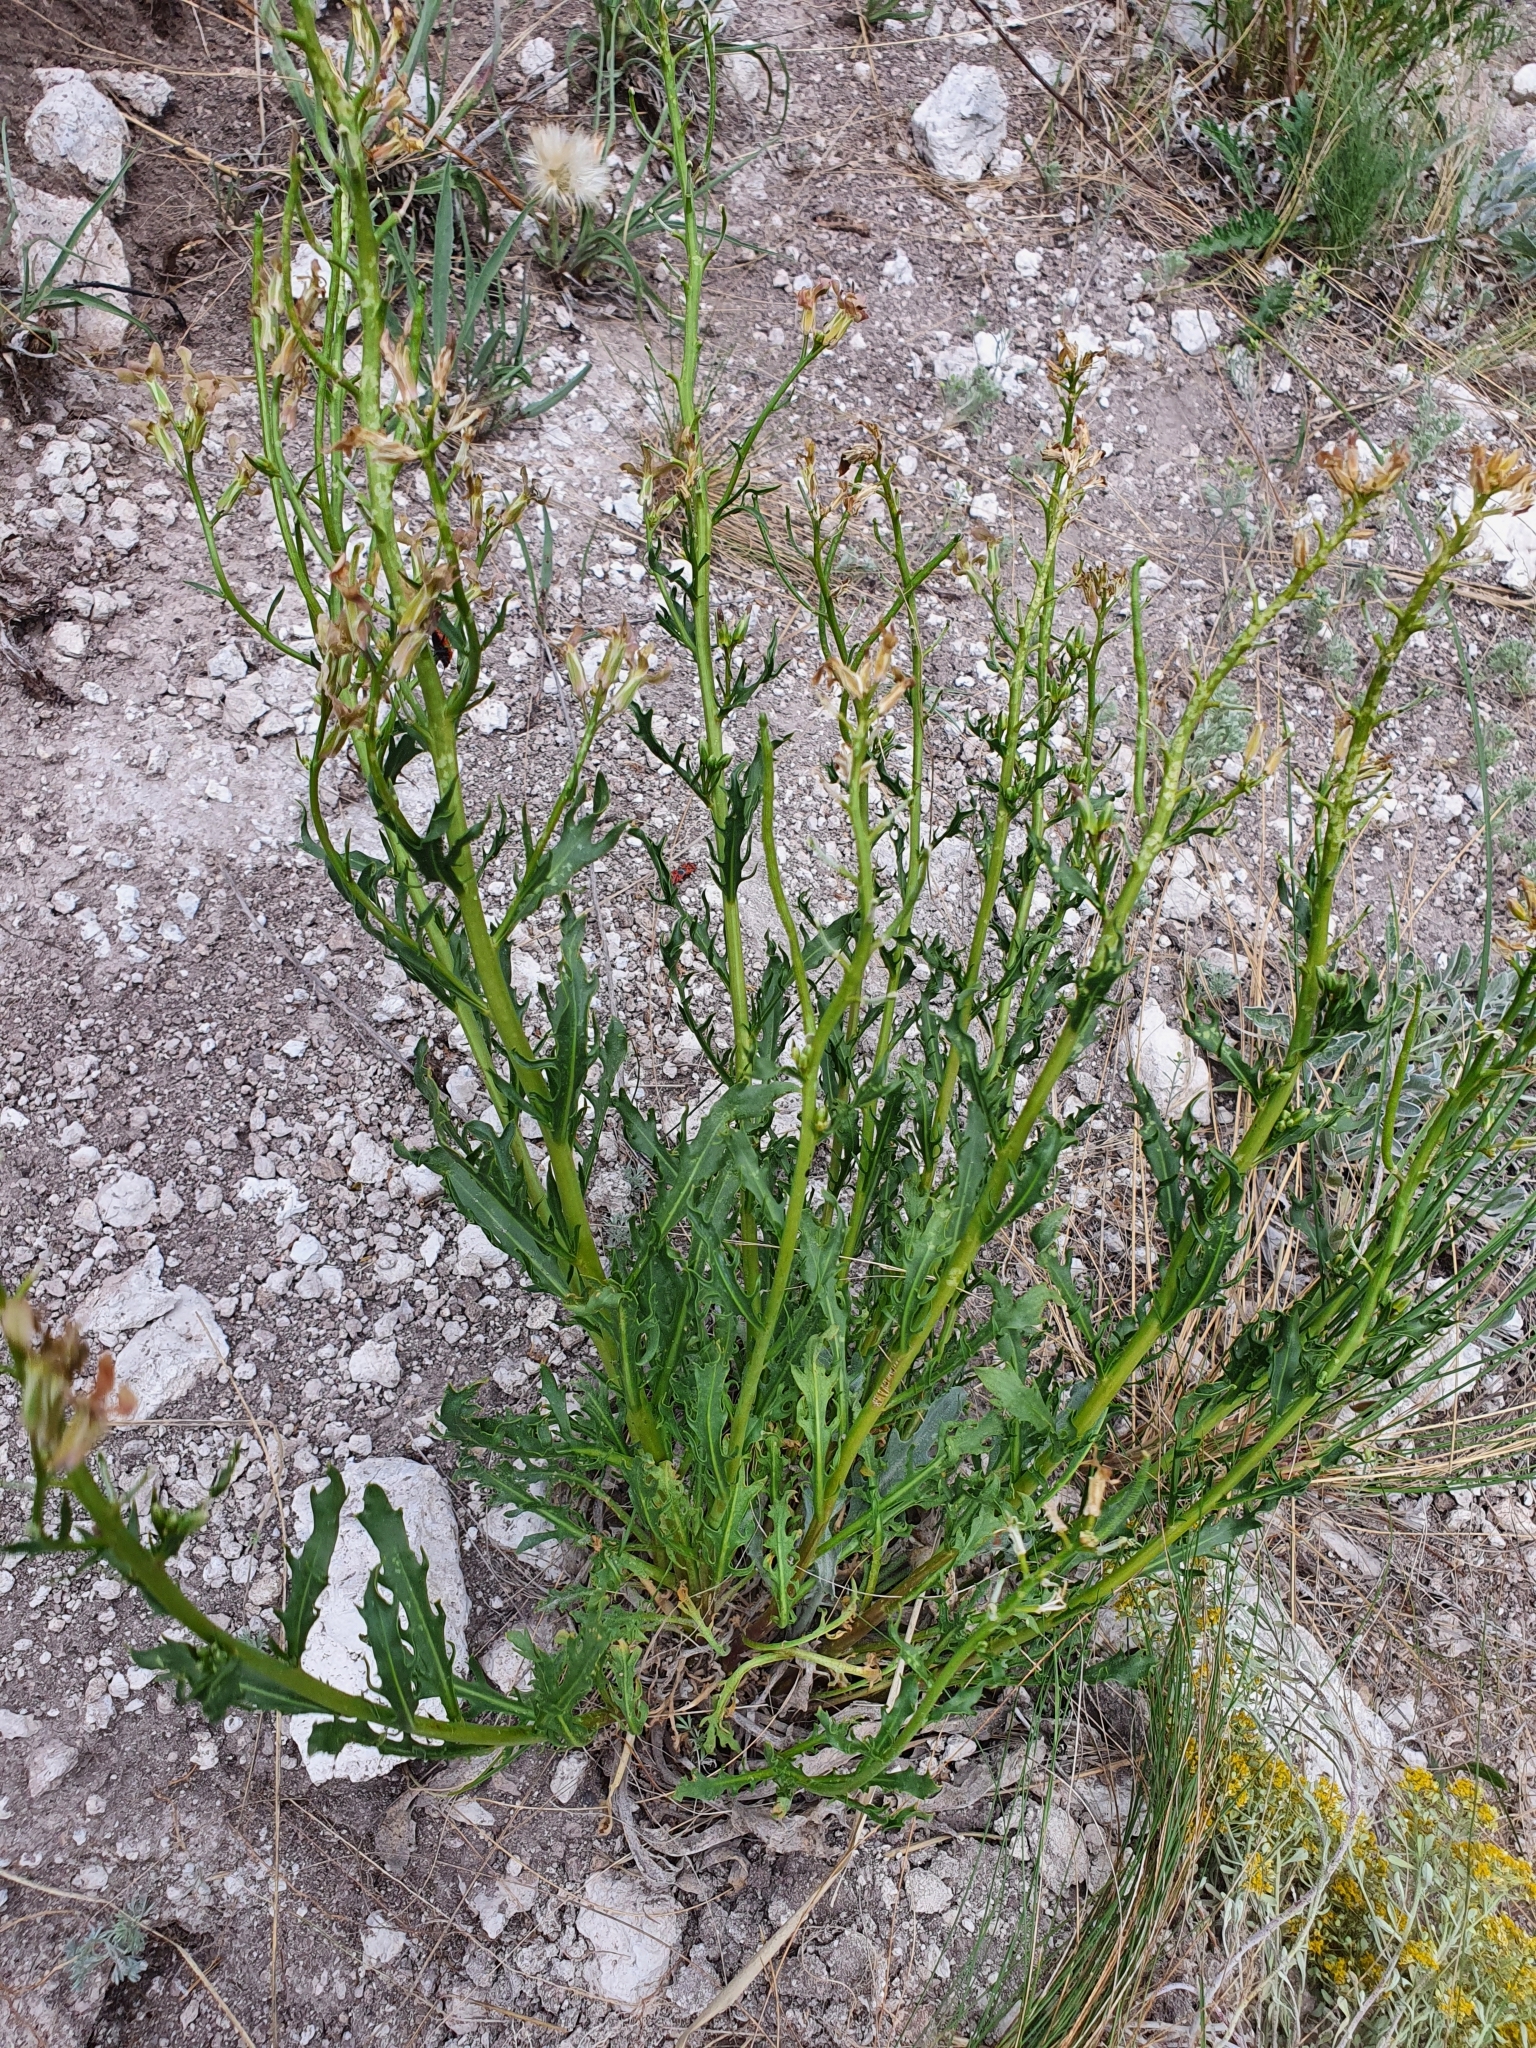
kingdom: Plantae
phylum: Tracheophyta
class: Magnoliopsida
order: Brassicales
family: Brassicaceae
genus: Matthiola
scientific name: Matthiola fragrans
